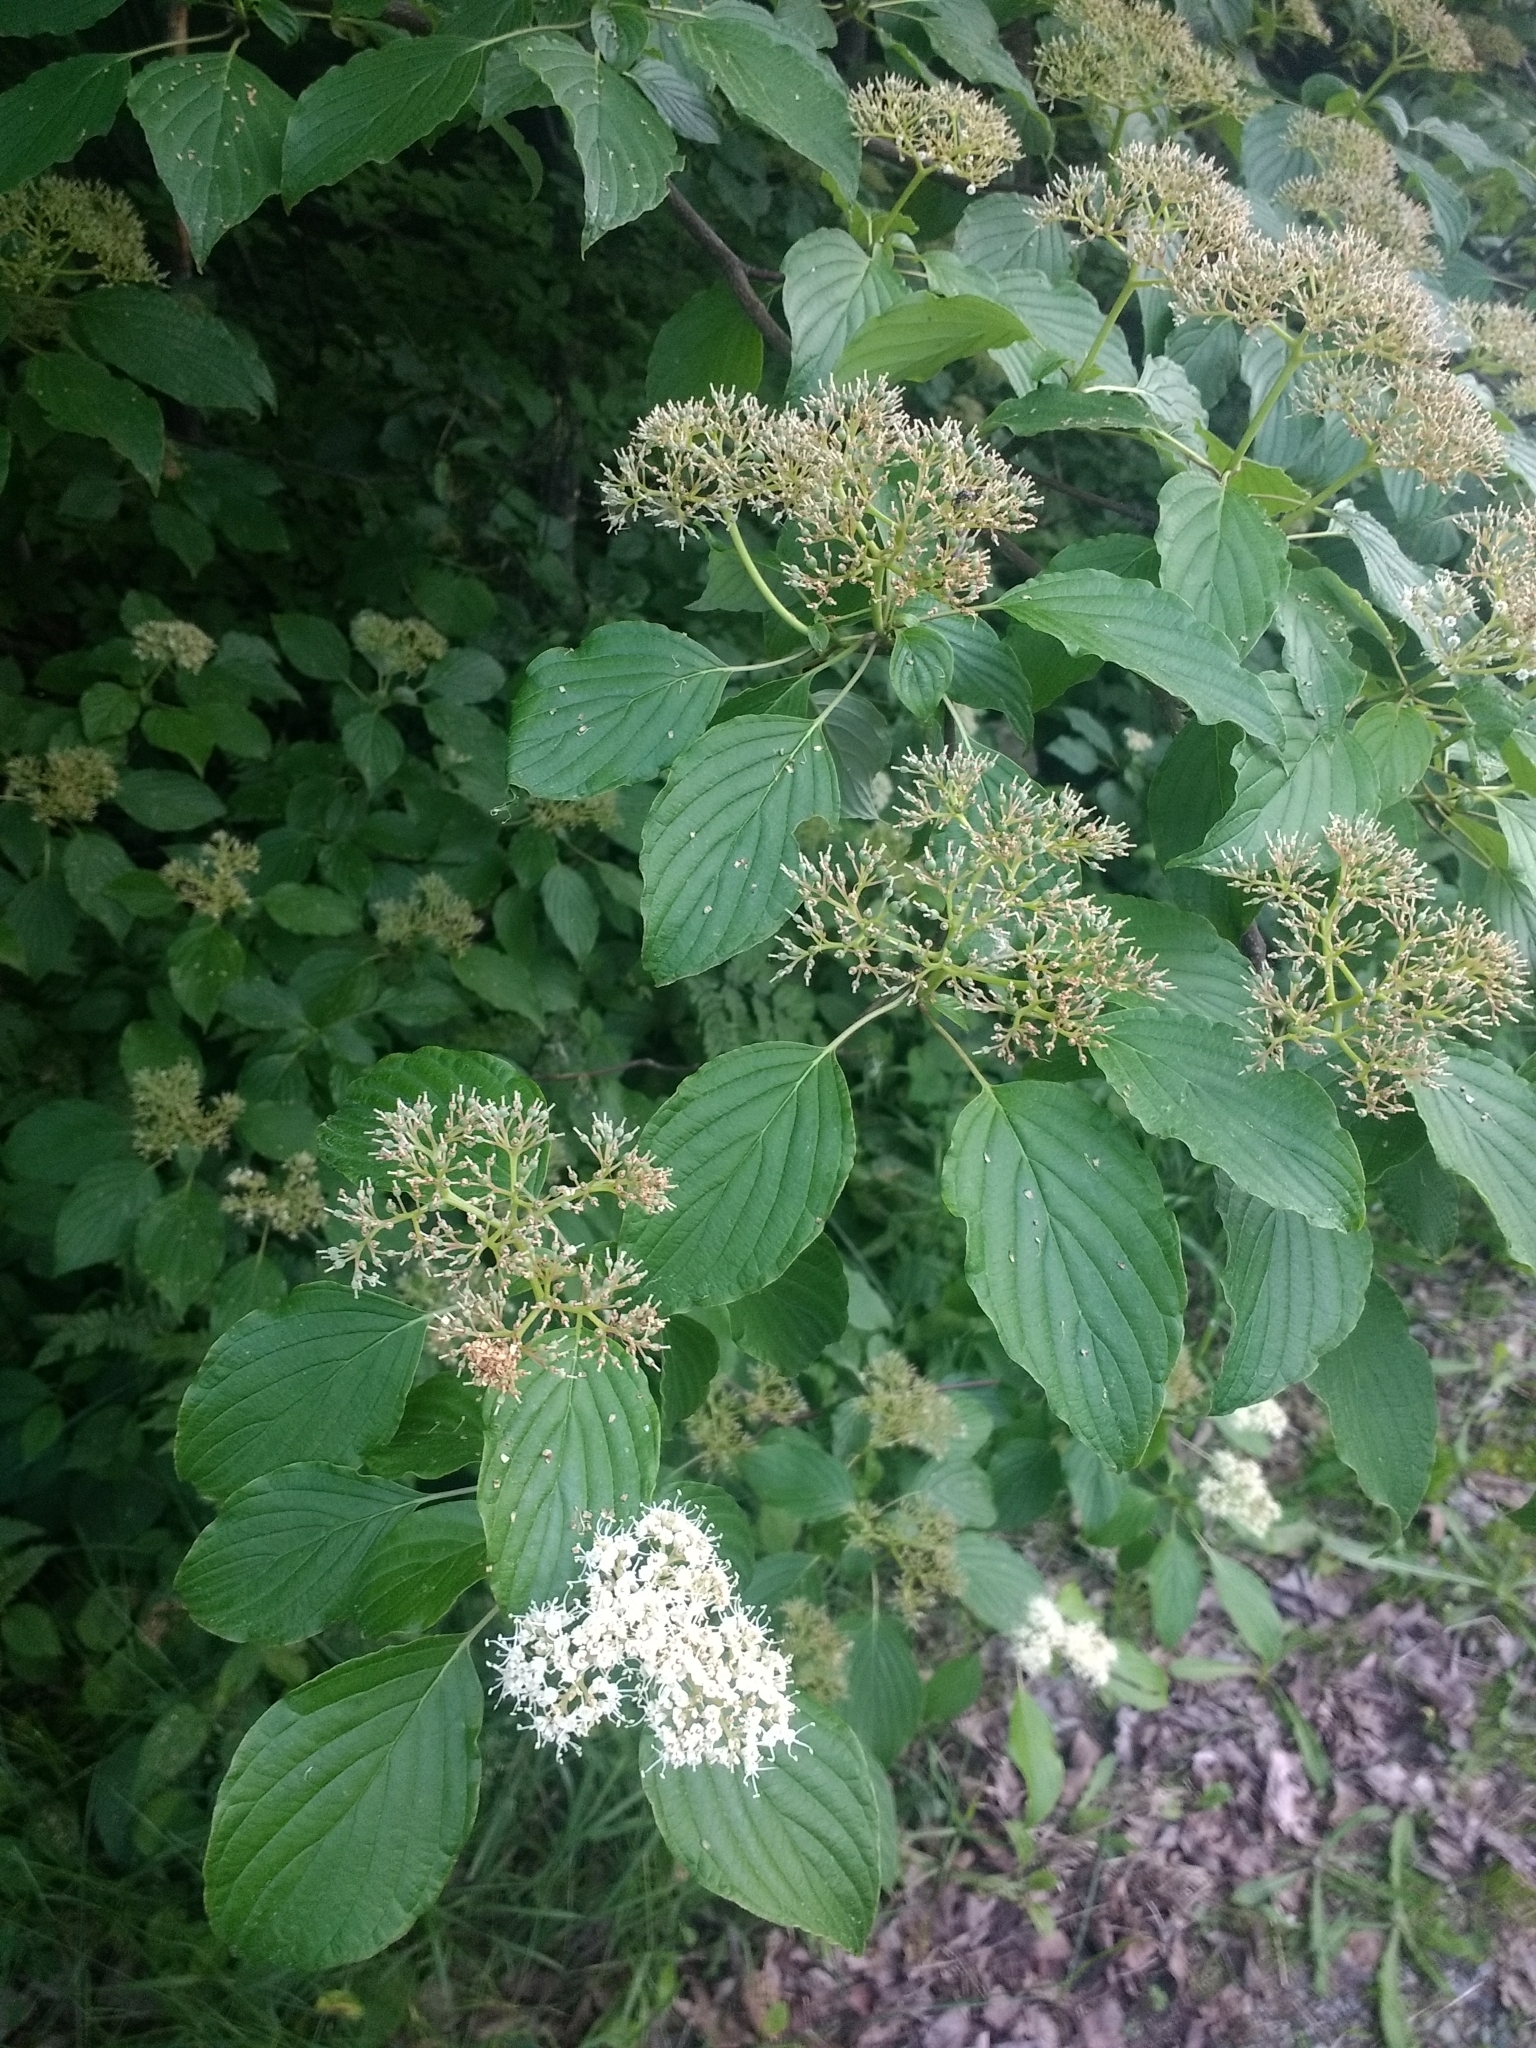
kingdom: Plantae
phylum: Tracheophyta
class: Magnoliopsida
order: Cornales
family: Cornaceae
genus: Cornus
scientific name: Cornus alternifolia
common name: Pagoda dogwood
